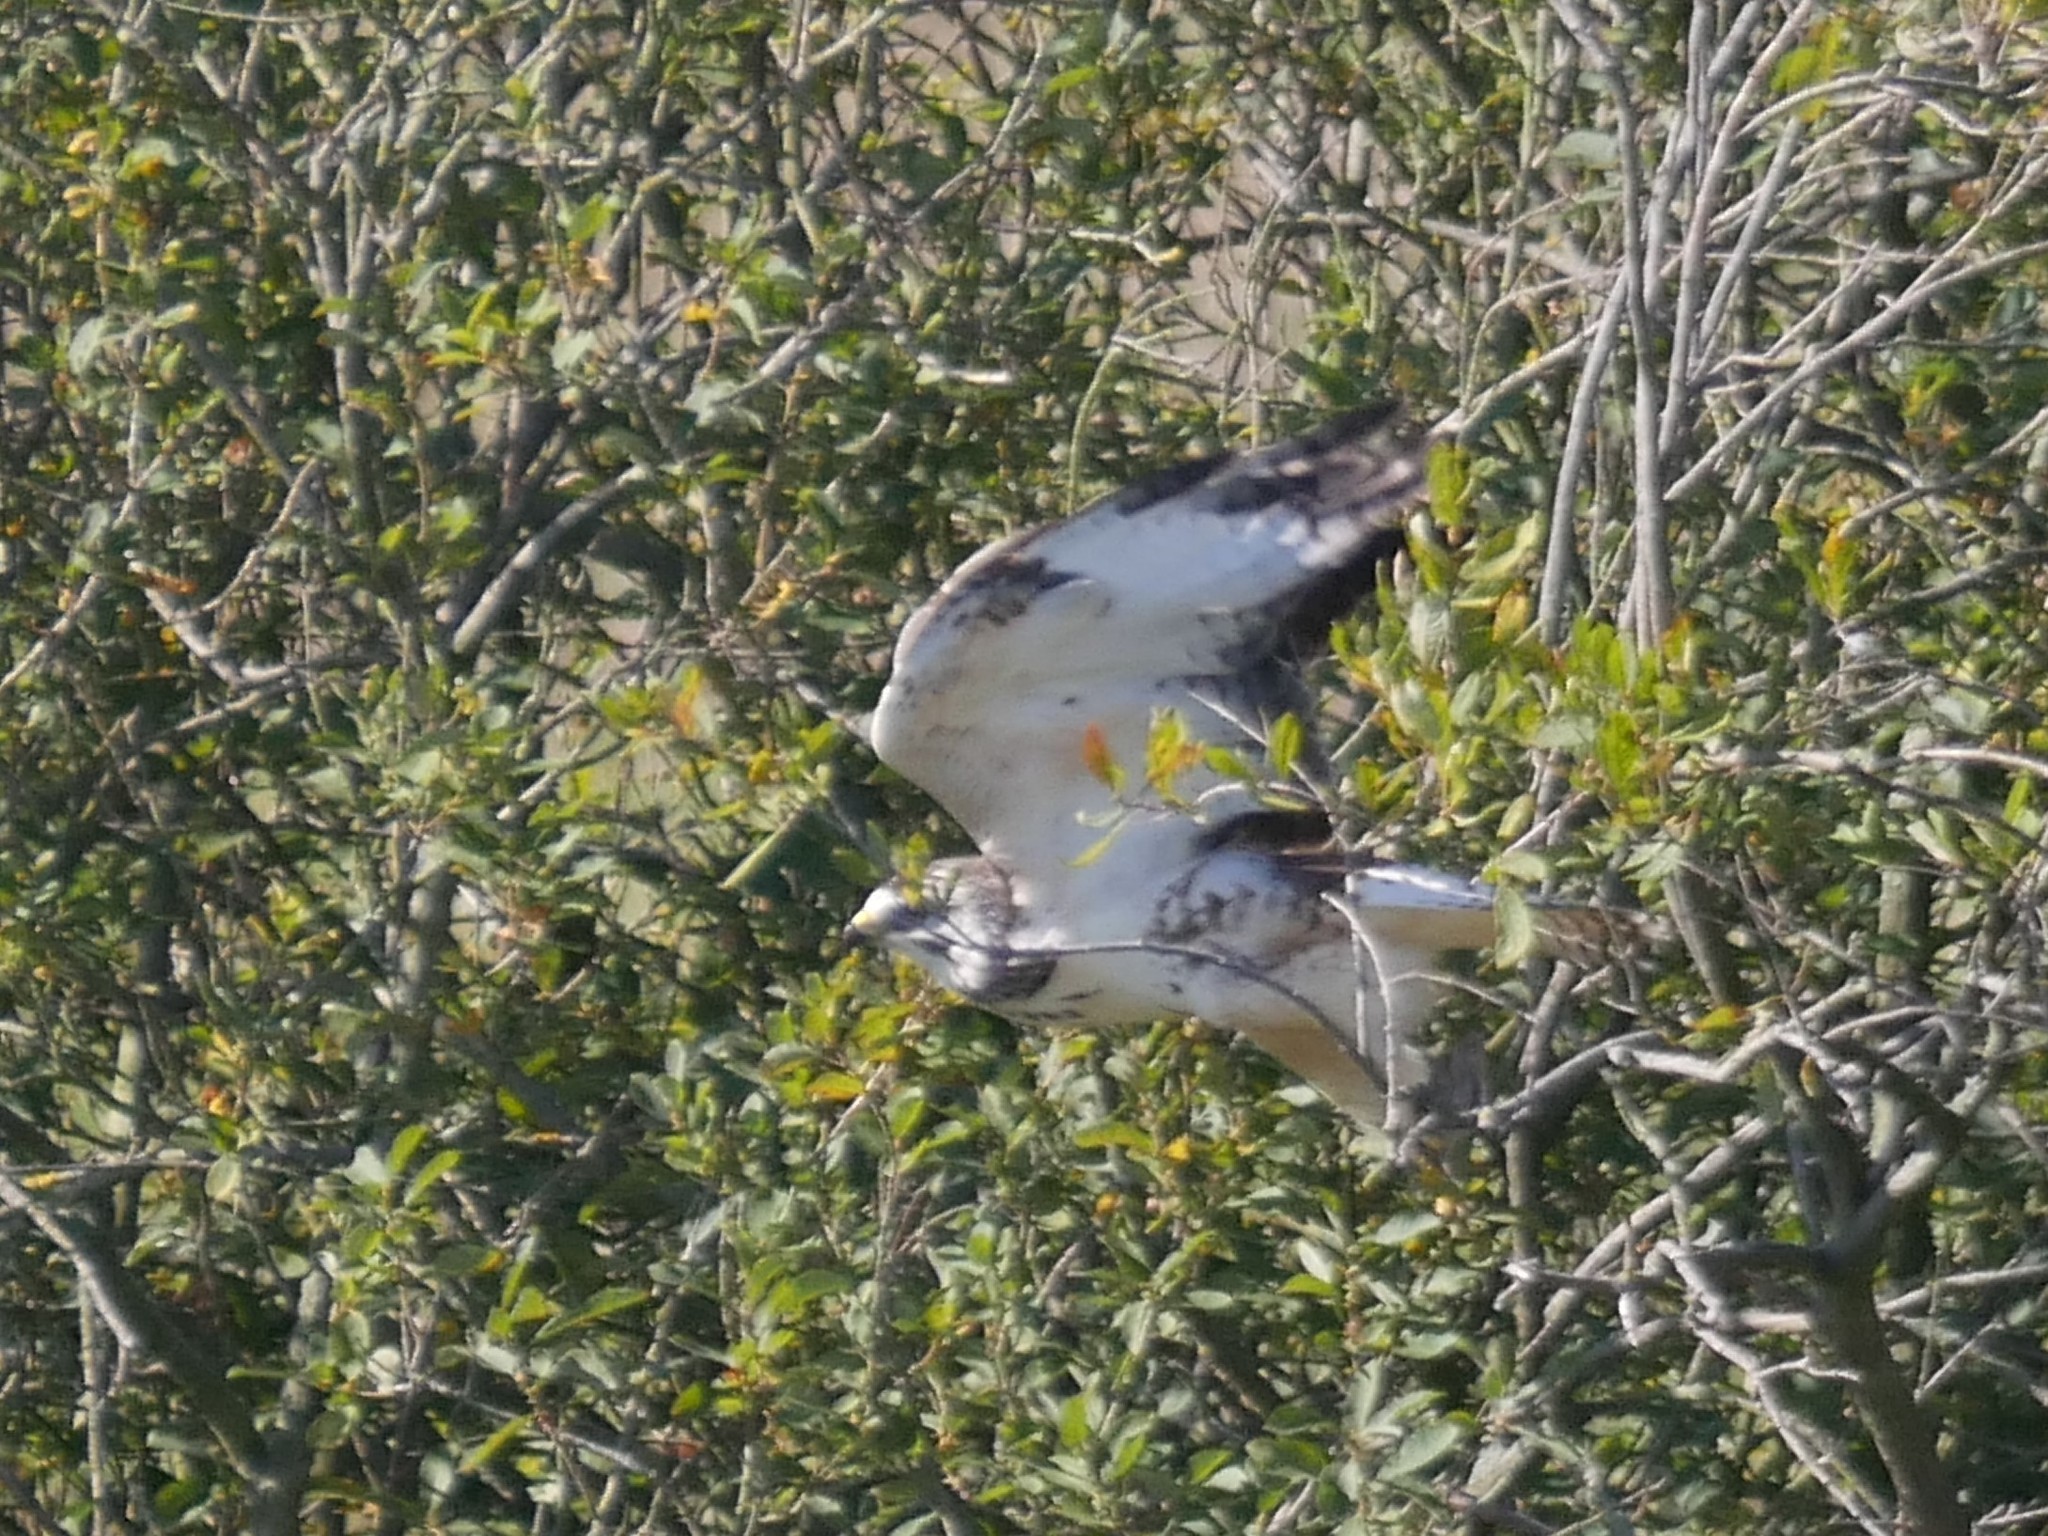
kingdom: Animalia
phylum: Chordata
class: Aves
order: Accipitriformes
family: Accipitridae
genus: Buteo
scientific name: Buteo buteo
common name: Common buzzard
